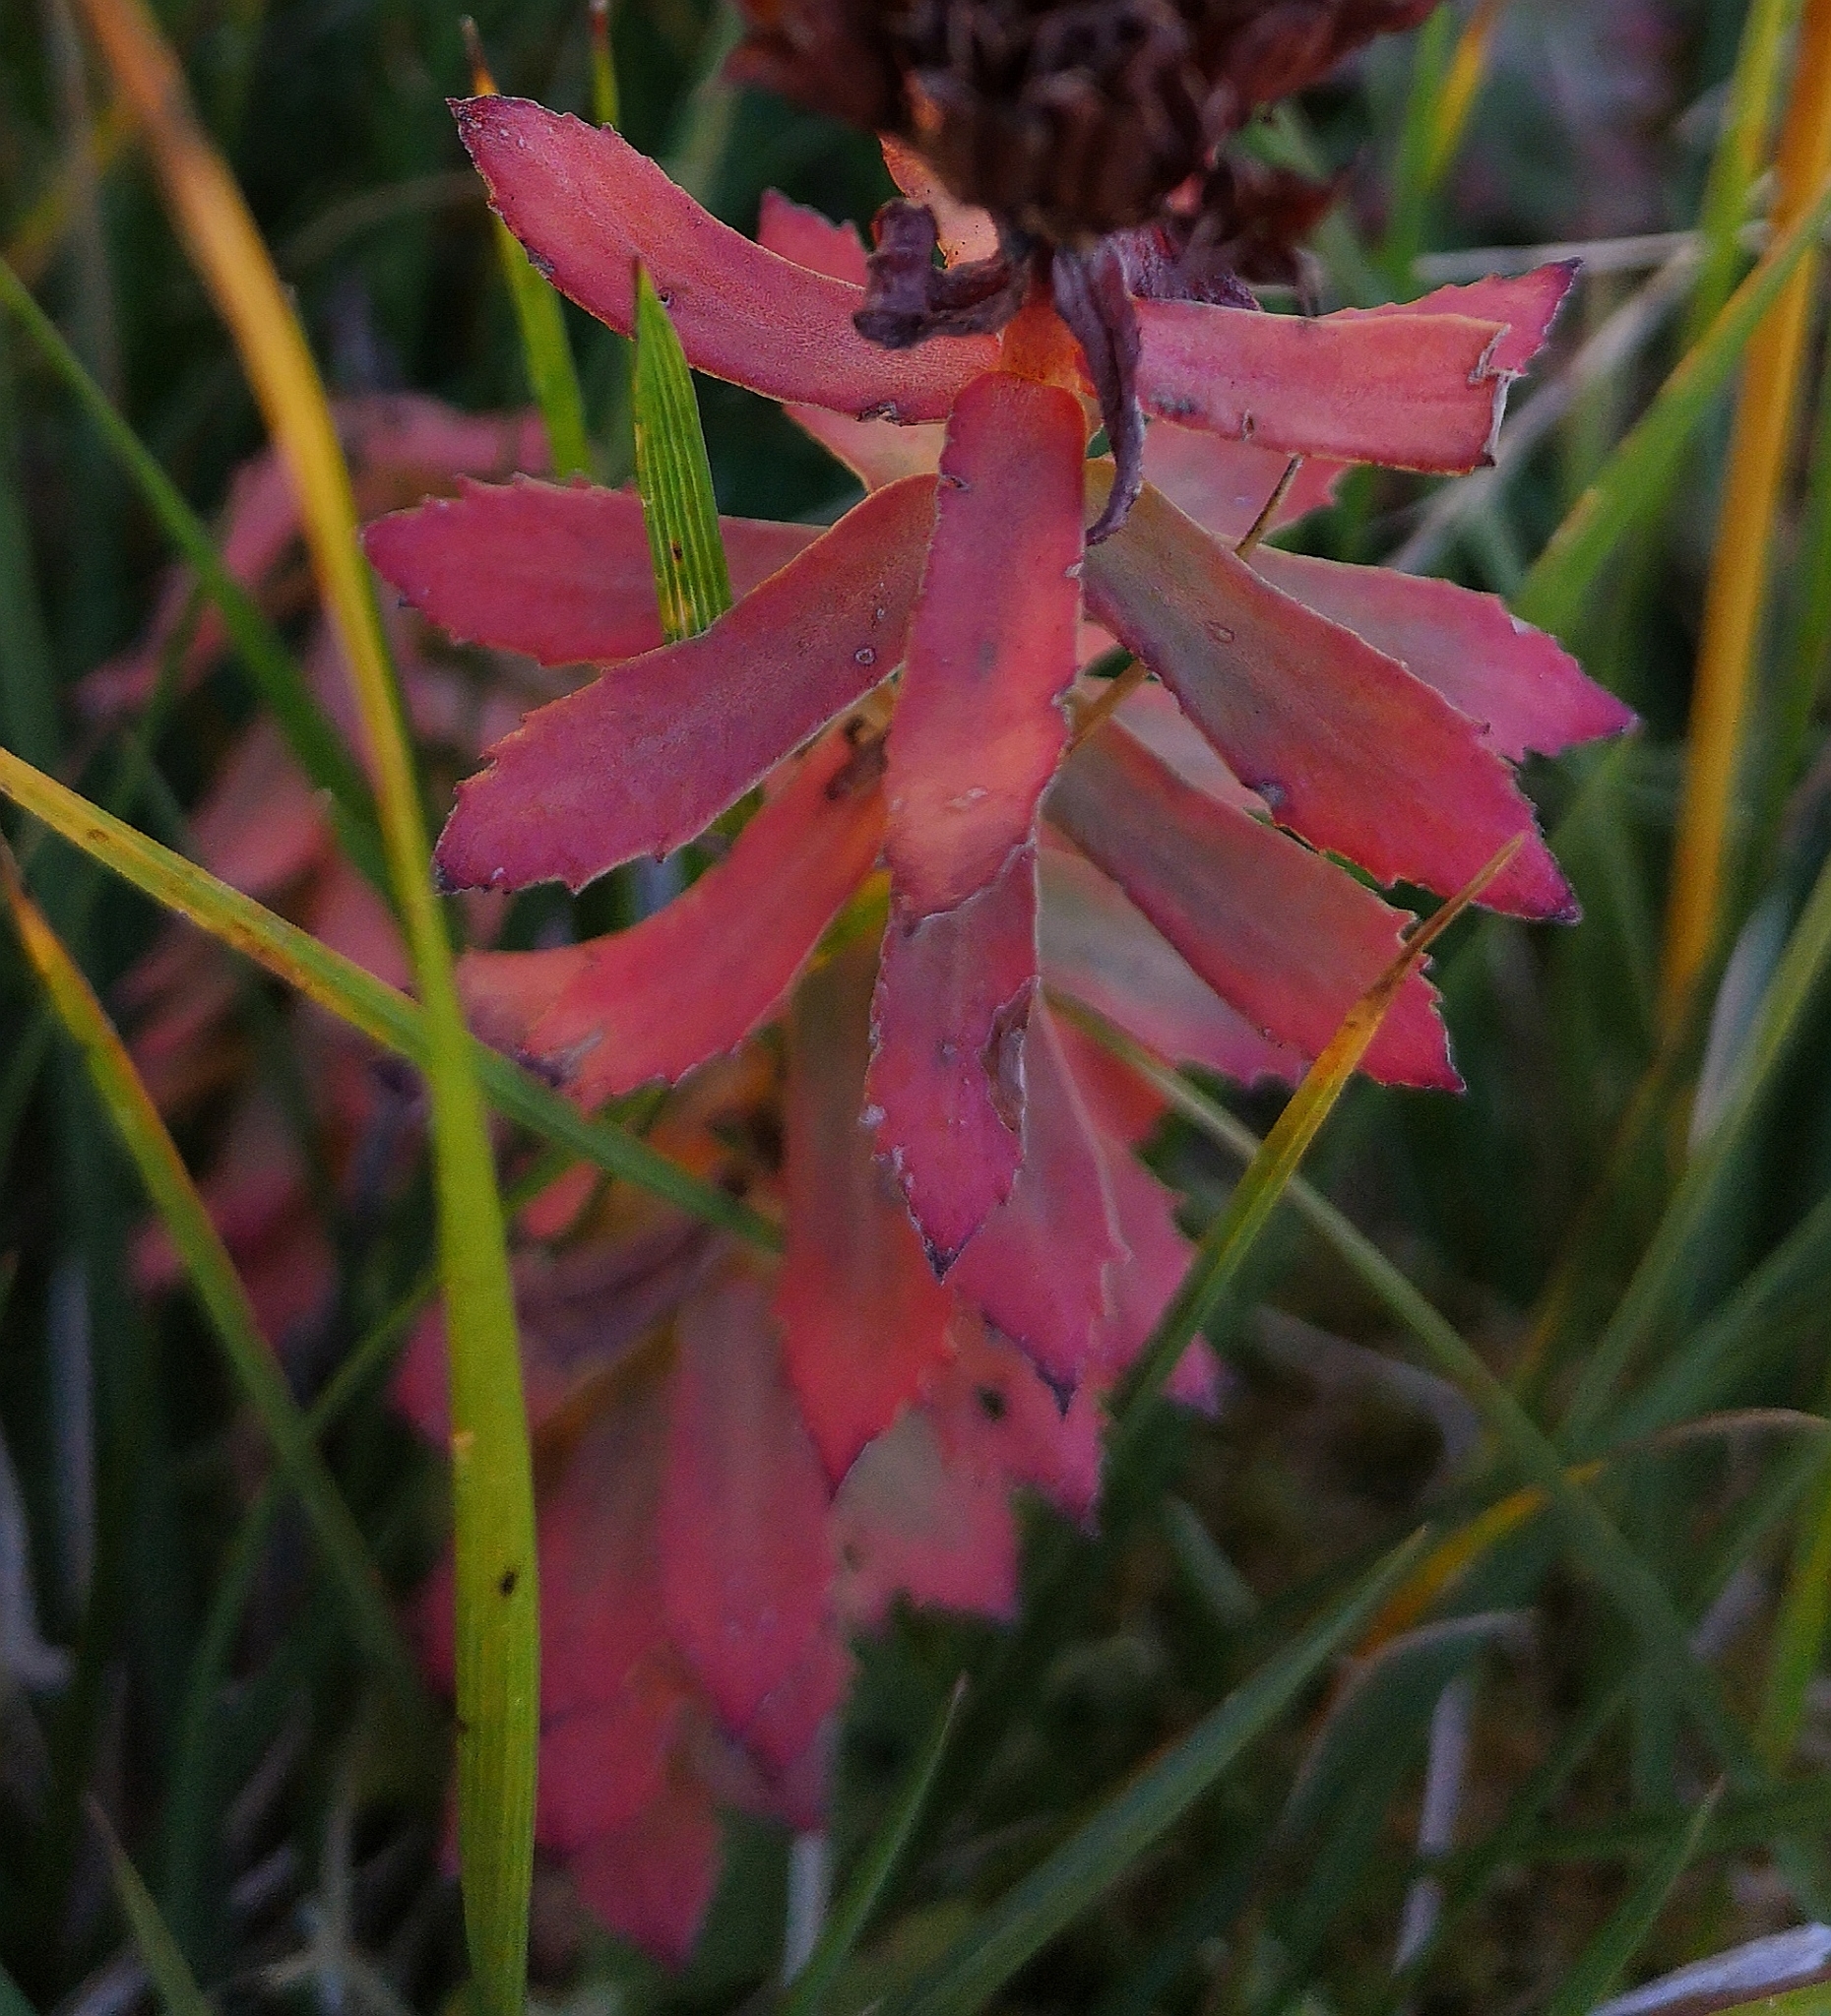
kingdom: Plantae
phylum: Tracheophyta
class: Magnoliopsida
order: Saxifragales
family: Crassulaceae
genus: Rhodiola
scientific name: Rhodiola rosea
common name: Roseroot
